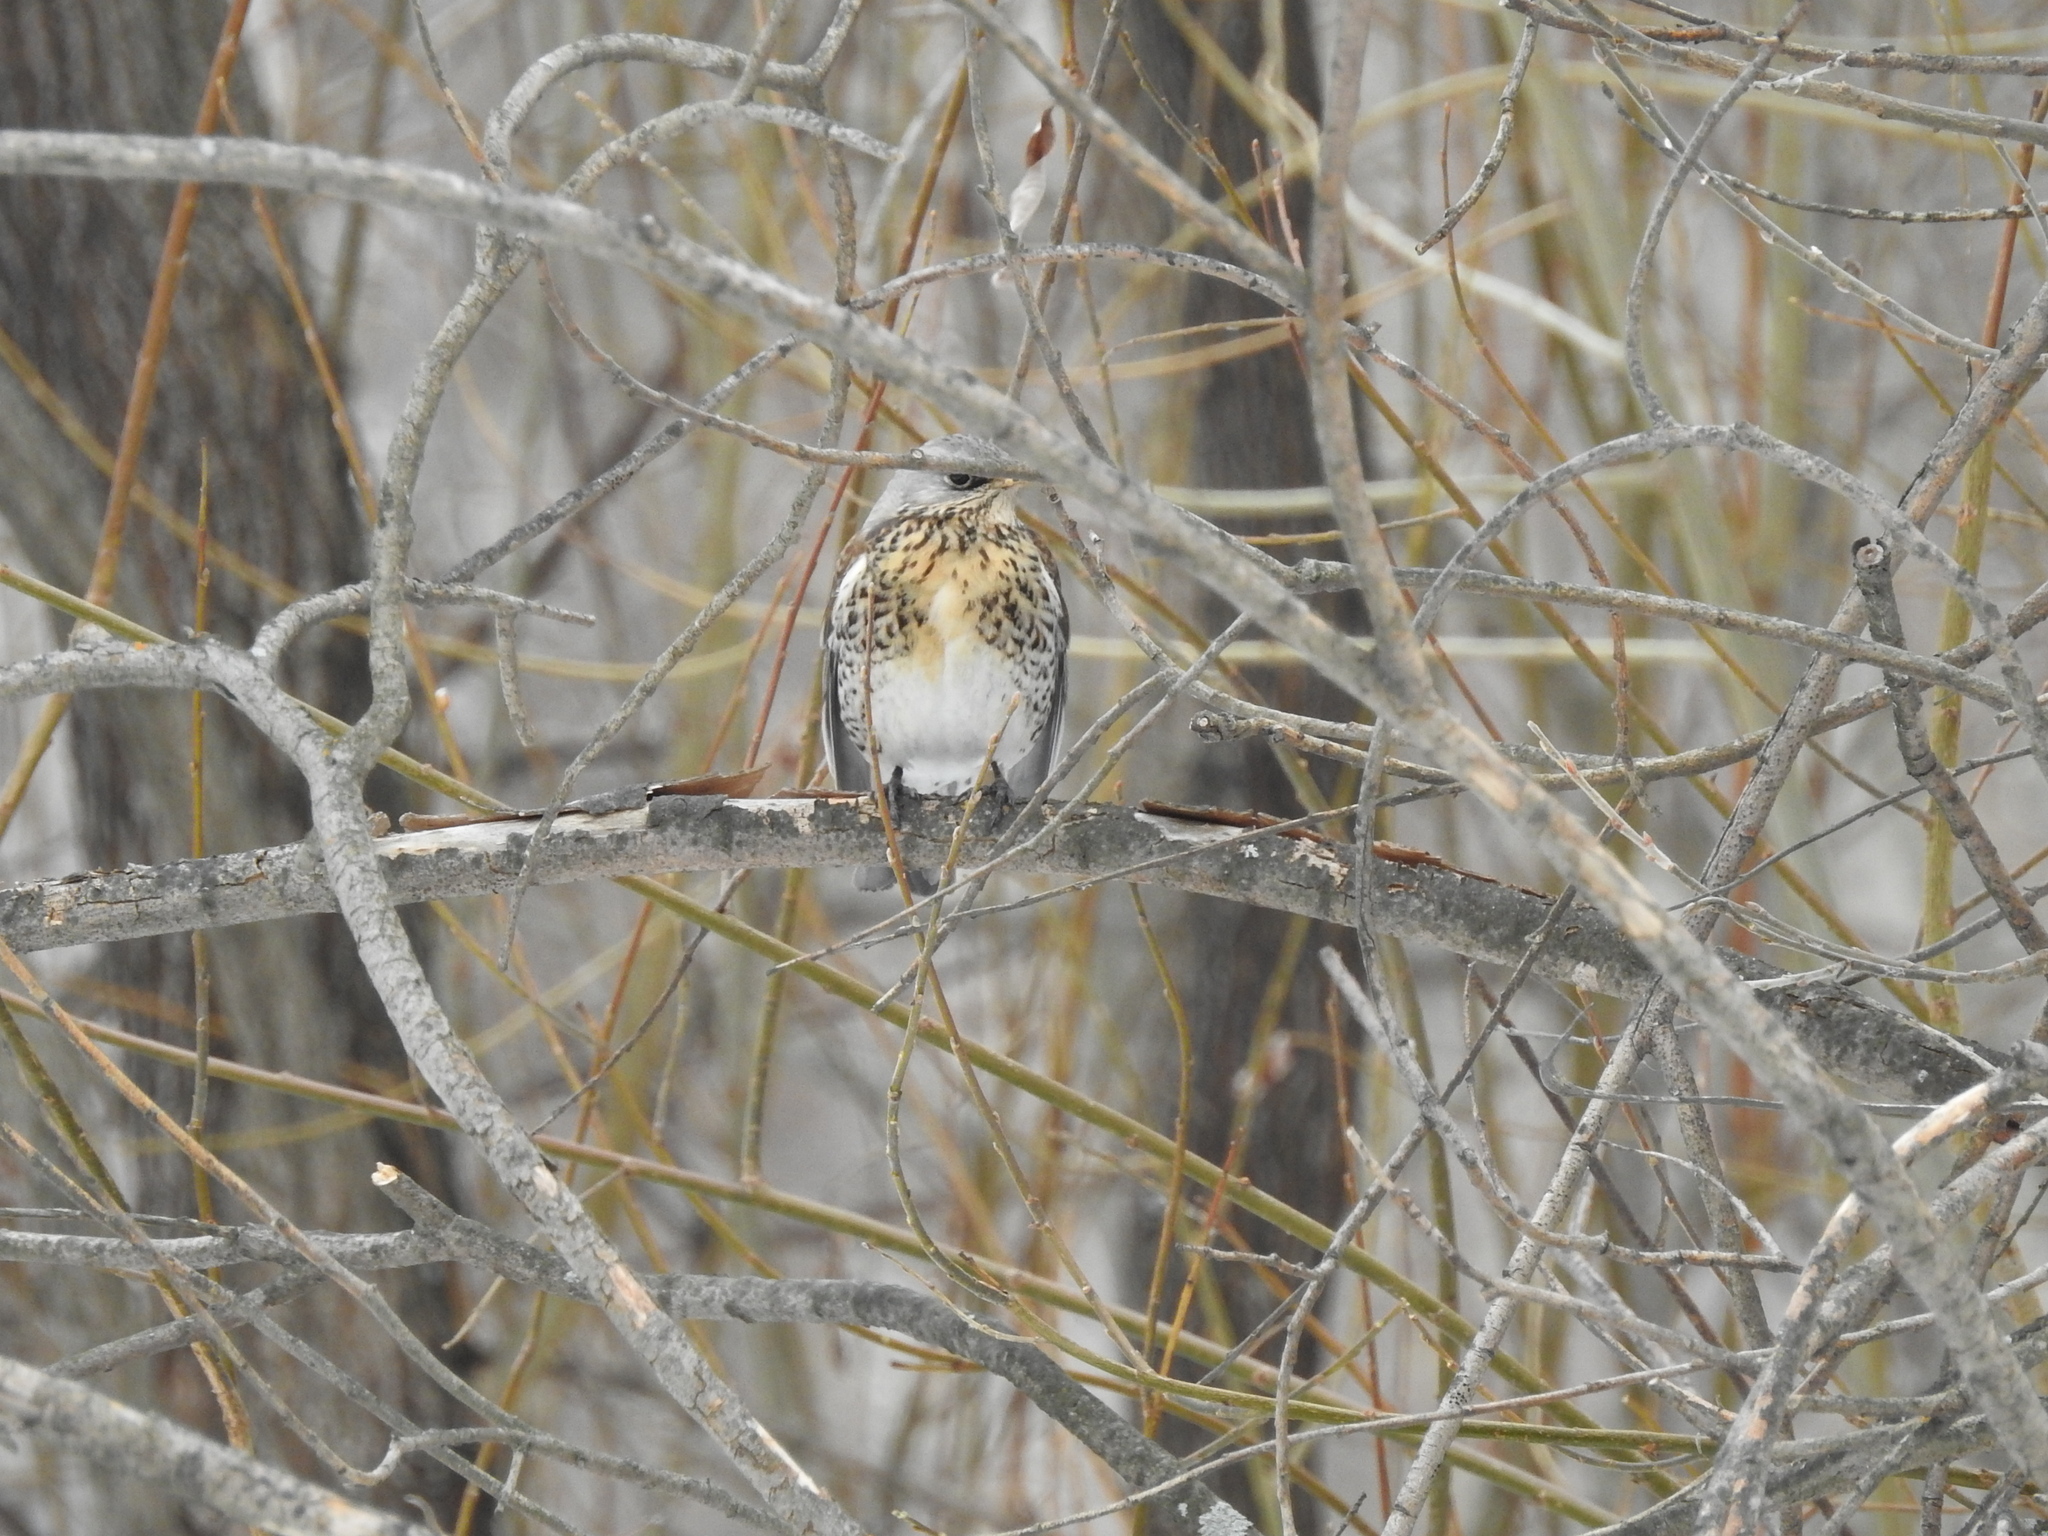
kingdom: Animalia
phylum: Chordata
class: Aves
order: Passeriformes
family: Turdidae
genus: Turdus
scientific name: Turdus pilaris
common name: Fieldfare
